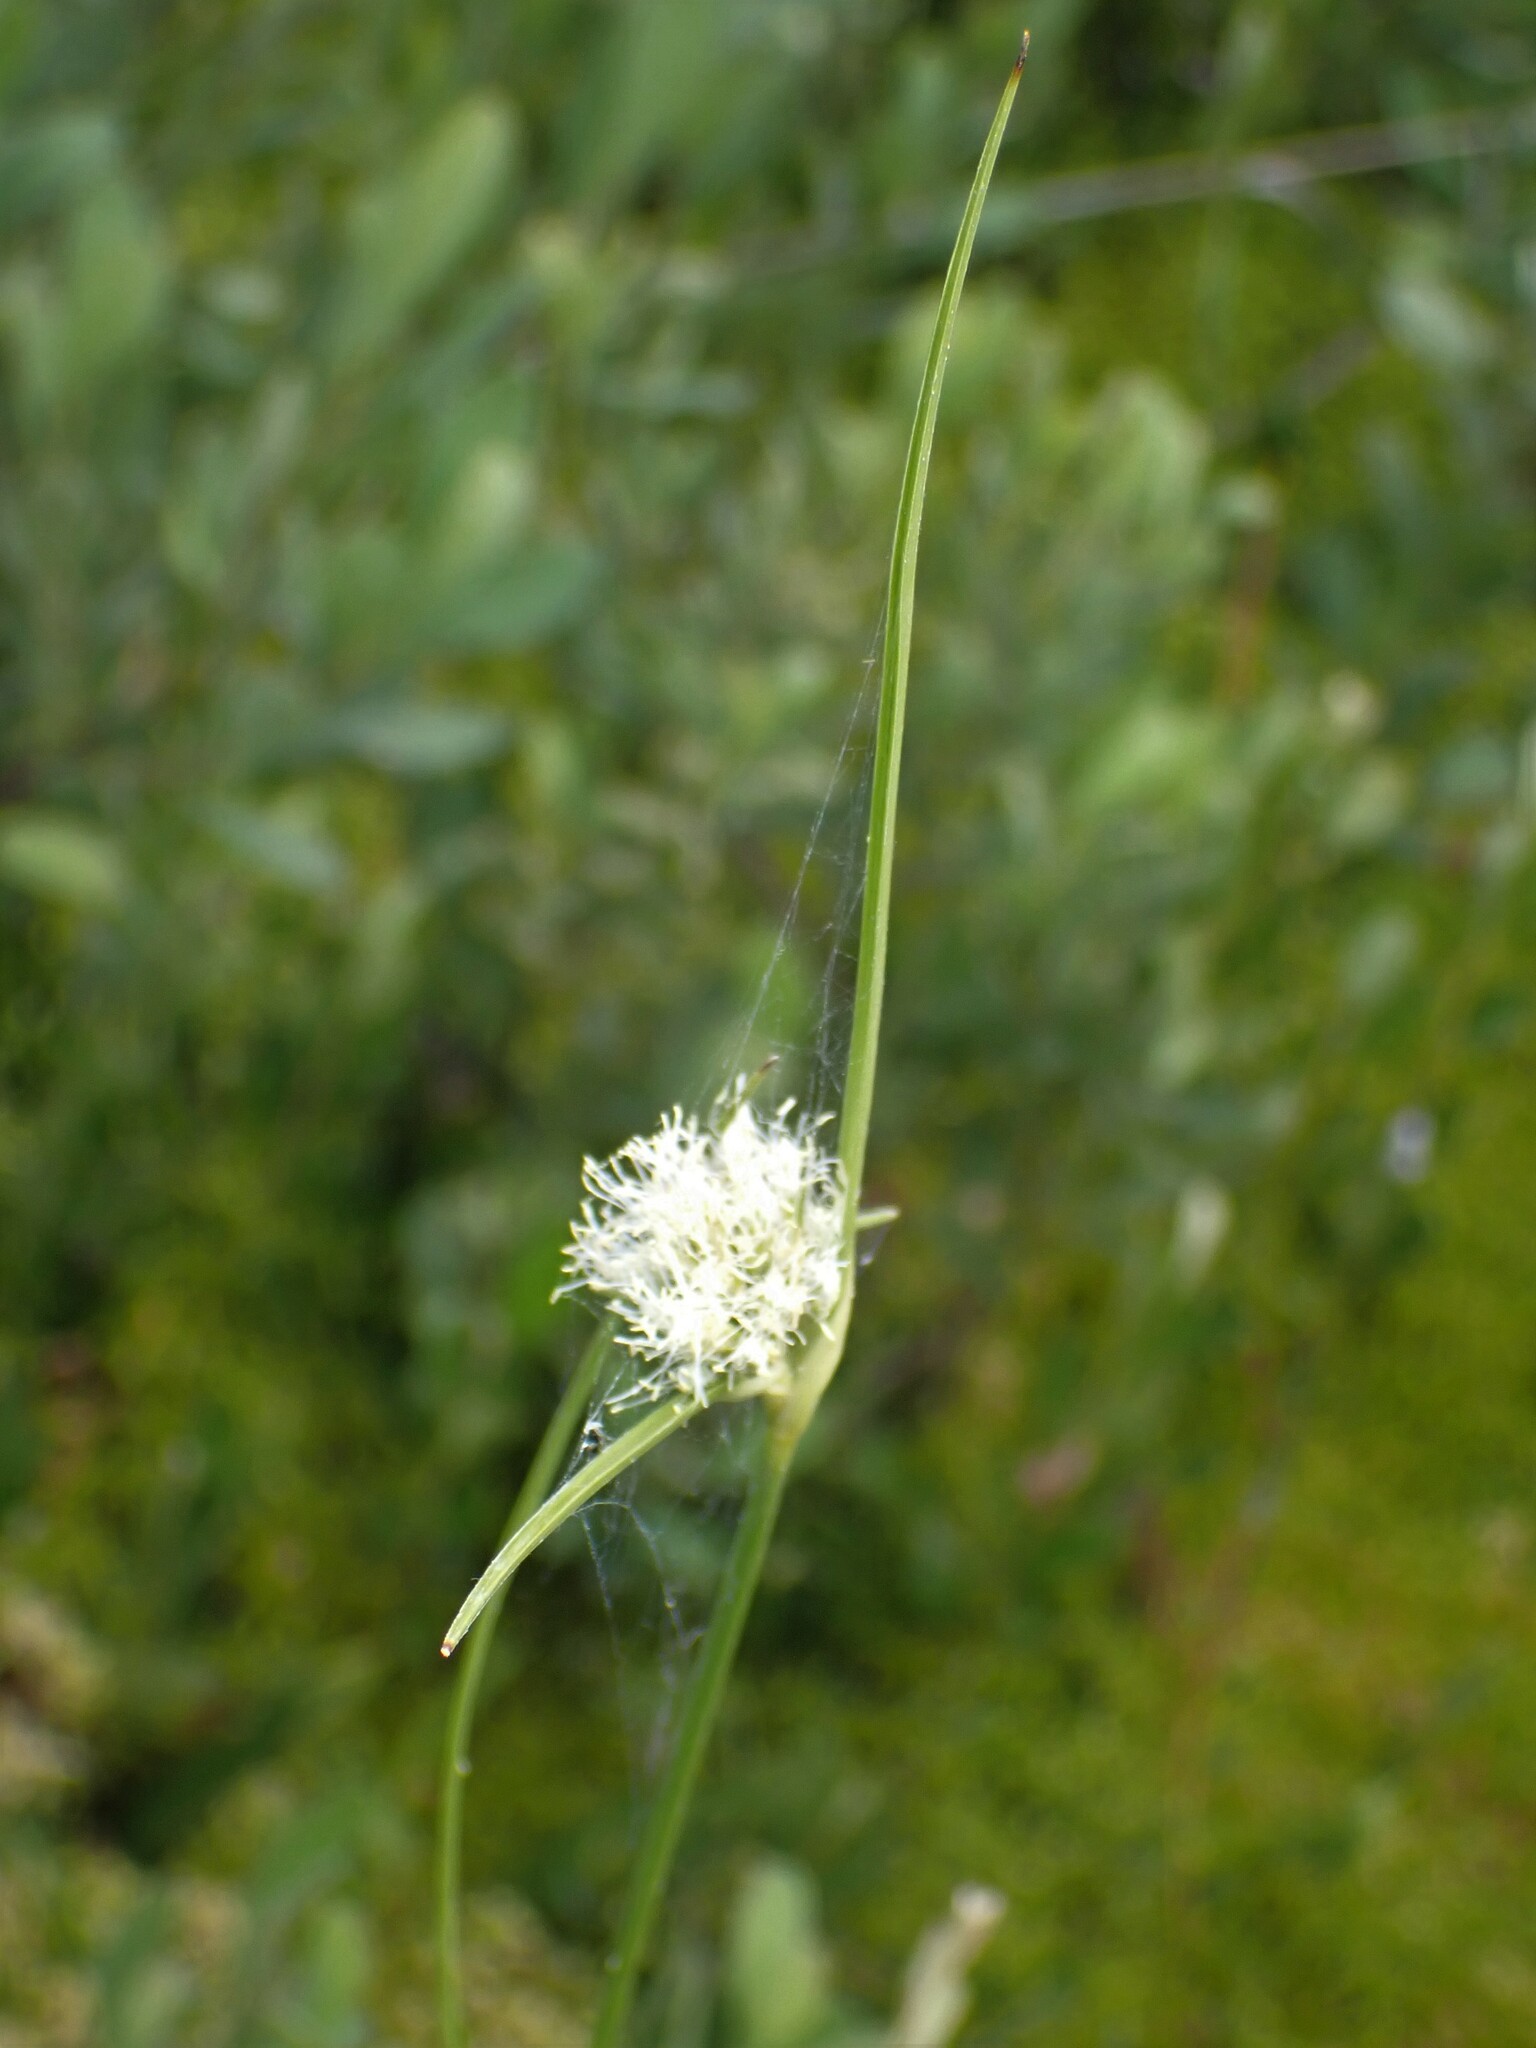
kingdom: Plantae
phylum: Tracheophyta
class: Liliopsida
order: Poales
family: Cyperaceae
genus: Eriophorum
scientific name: Eriophorum virginicum
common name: Tawny cottongrass
